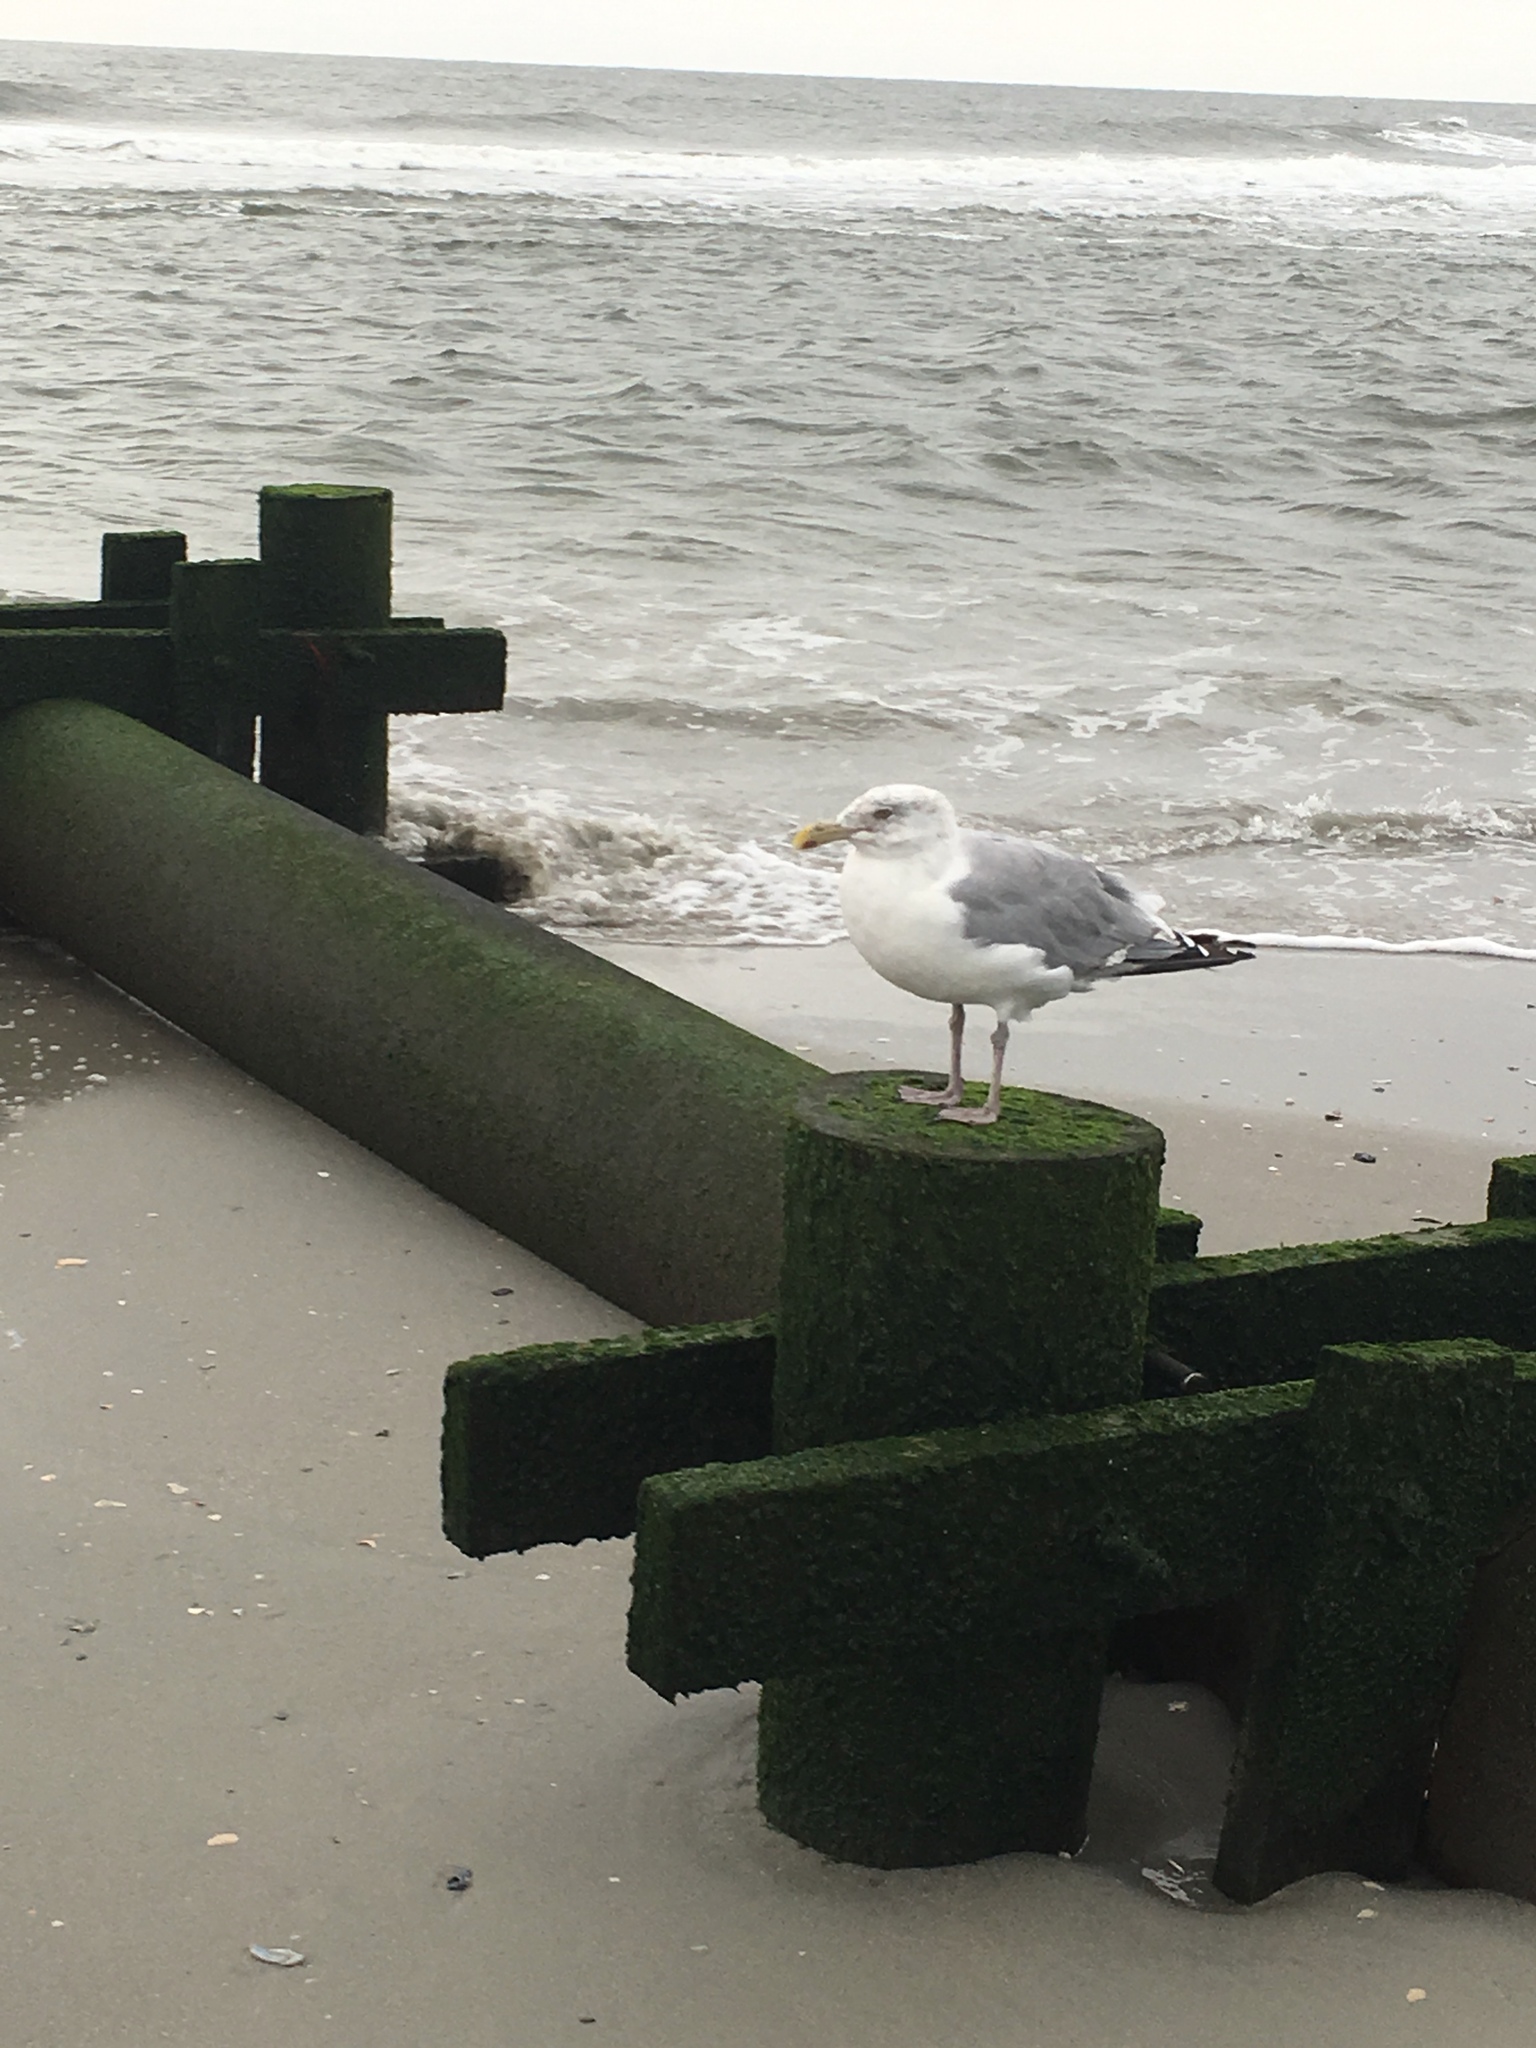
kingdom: Animalia
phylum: Chordata
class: Aves
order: Charadriiformes
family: Laridae
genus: Larus
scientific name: Larus argentatus
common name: Herring gull
